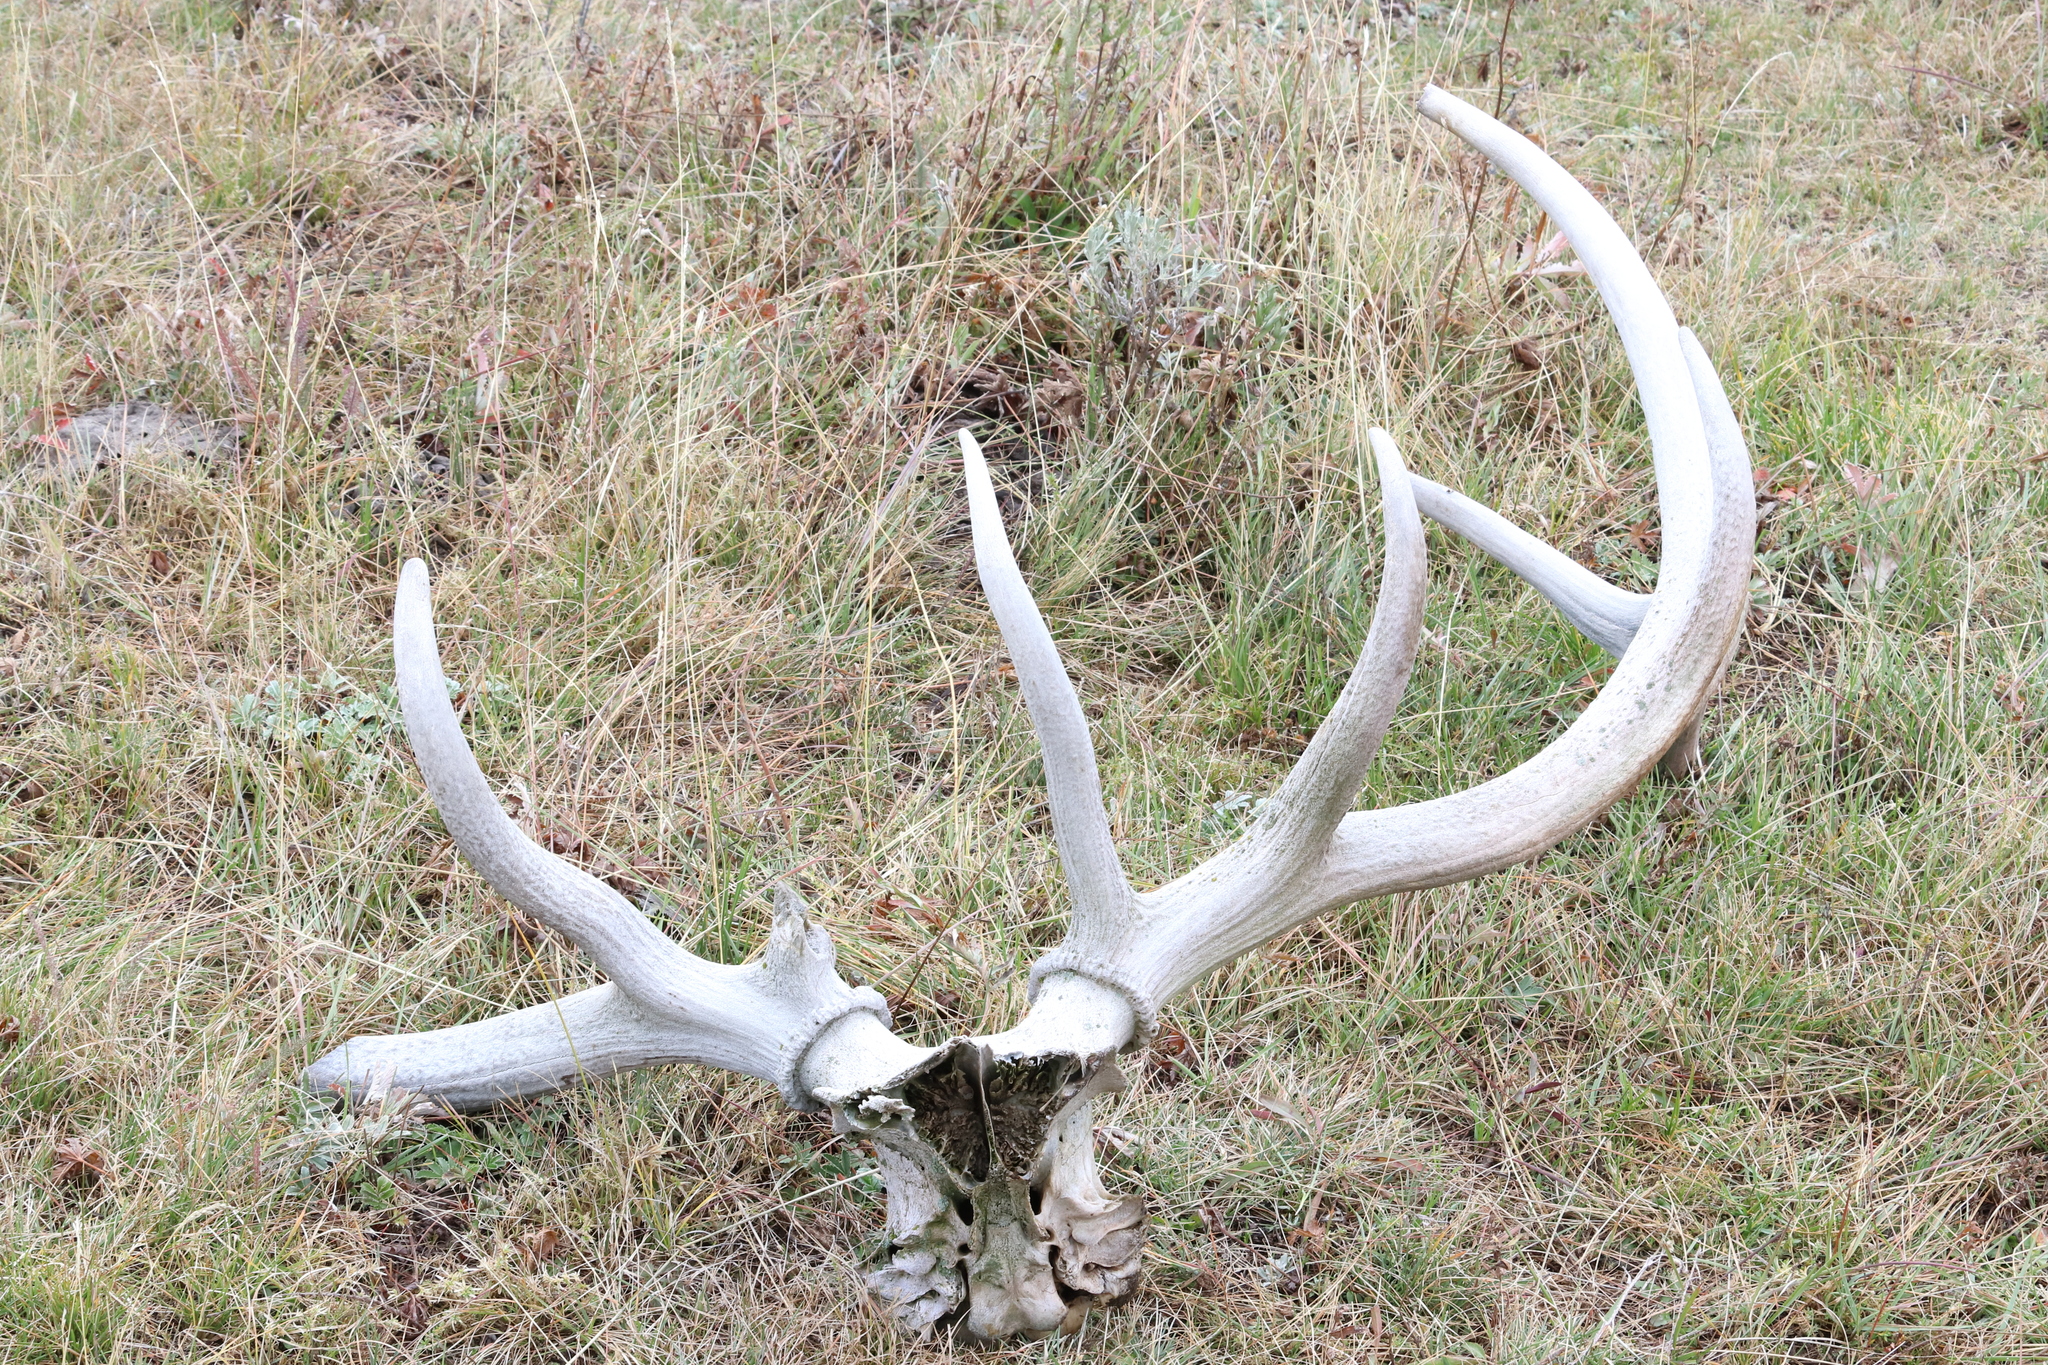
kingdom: Animalia
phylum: Chordata
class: Mammalia
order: Artiodactyla
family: Cervidae
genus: Cervus
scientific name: Cervus elaphus
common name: Red deer
